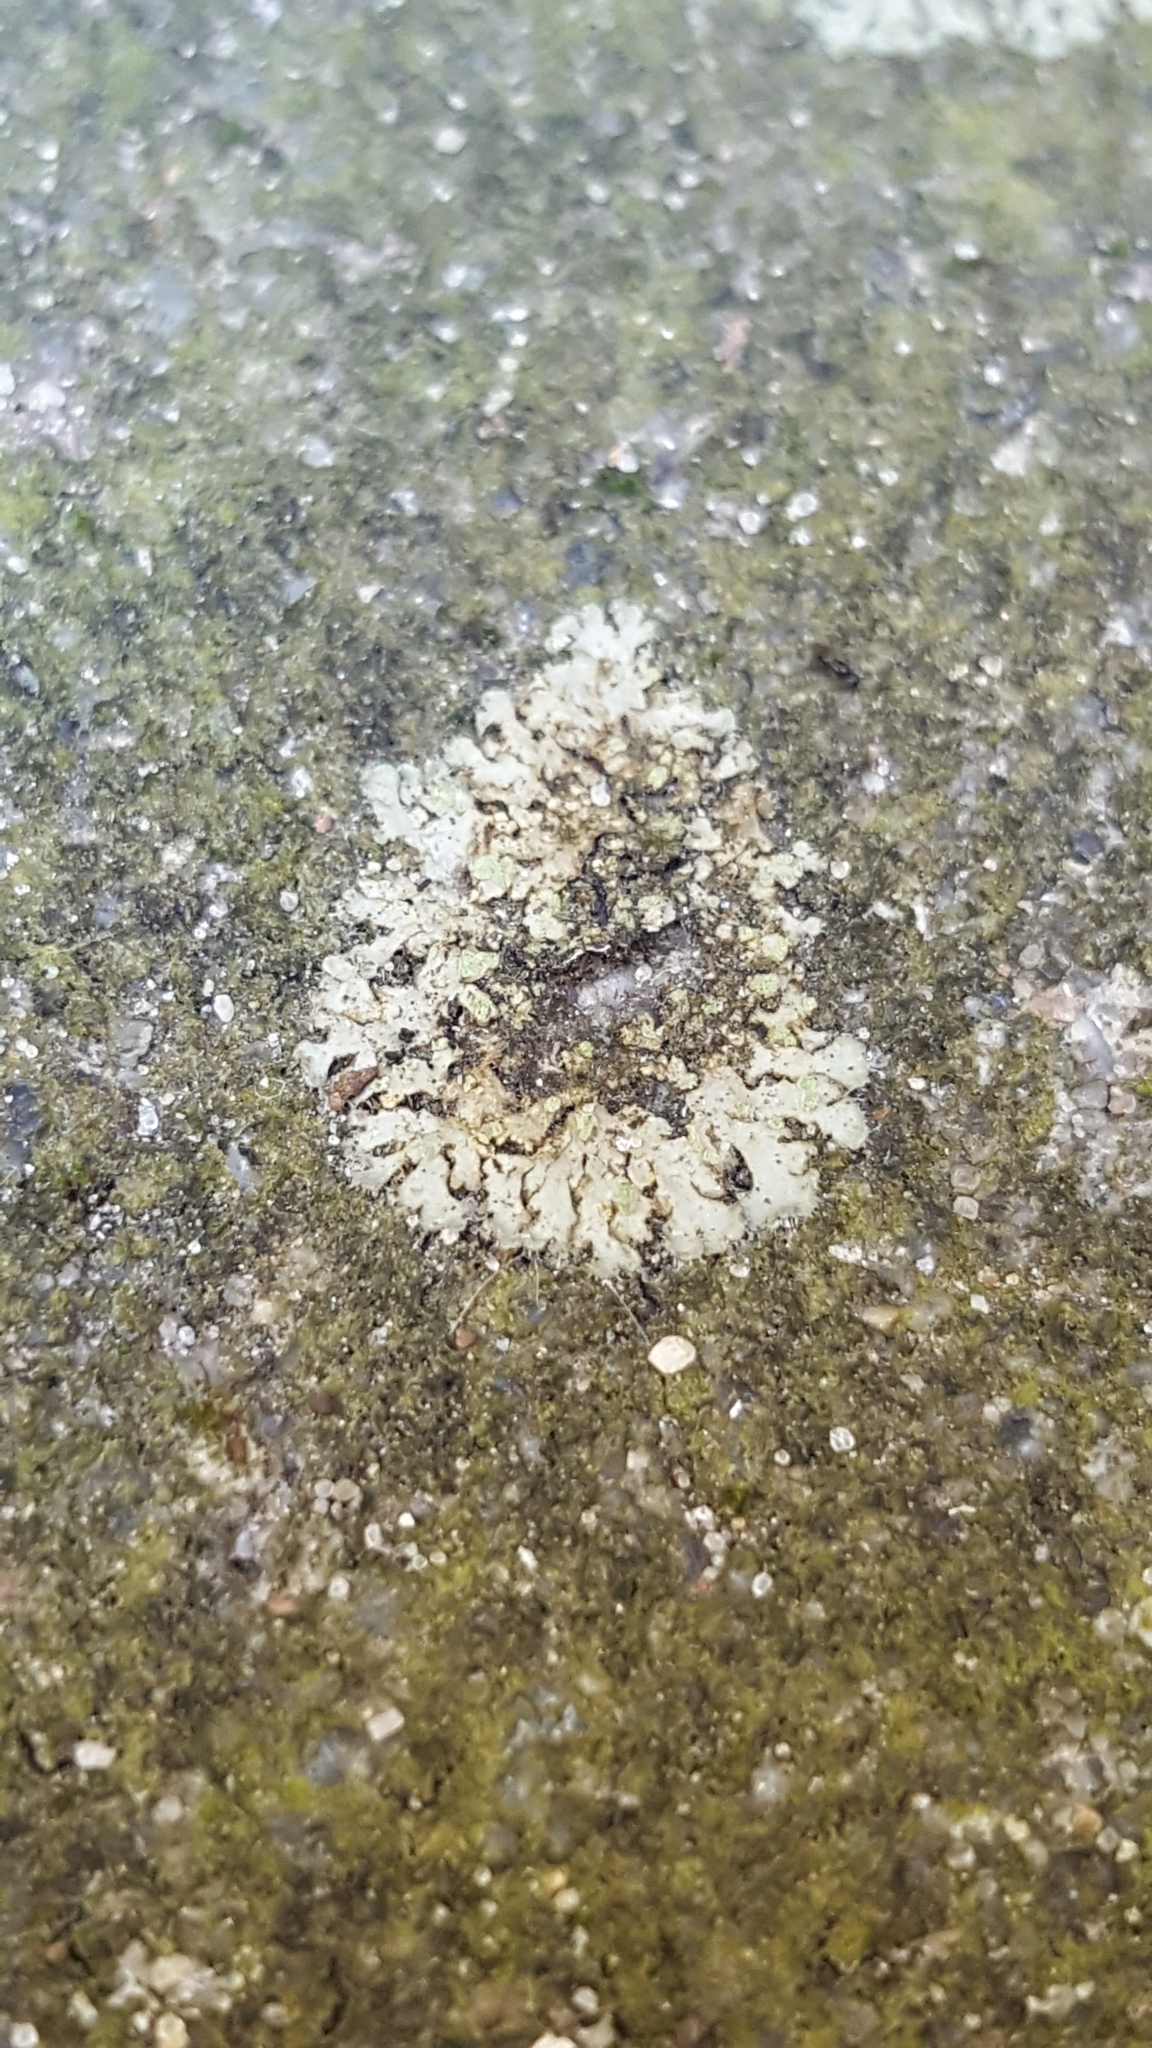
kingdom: Fungi
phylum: Ascomycota
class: Lecanoromycetes
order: Caliciales
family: Physciaceae
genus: Phaeophyscia
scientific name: Phaeophyscia orbicularis
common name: Mealy shadow lichen
